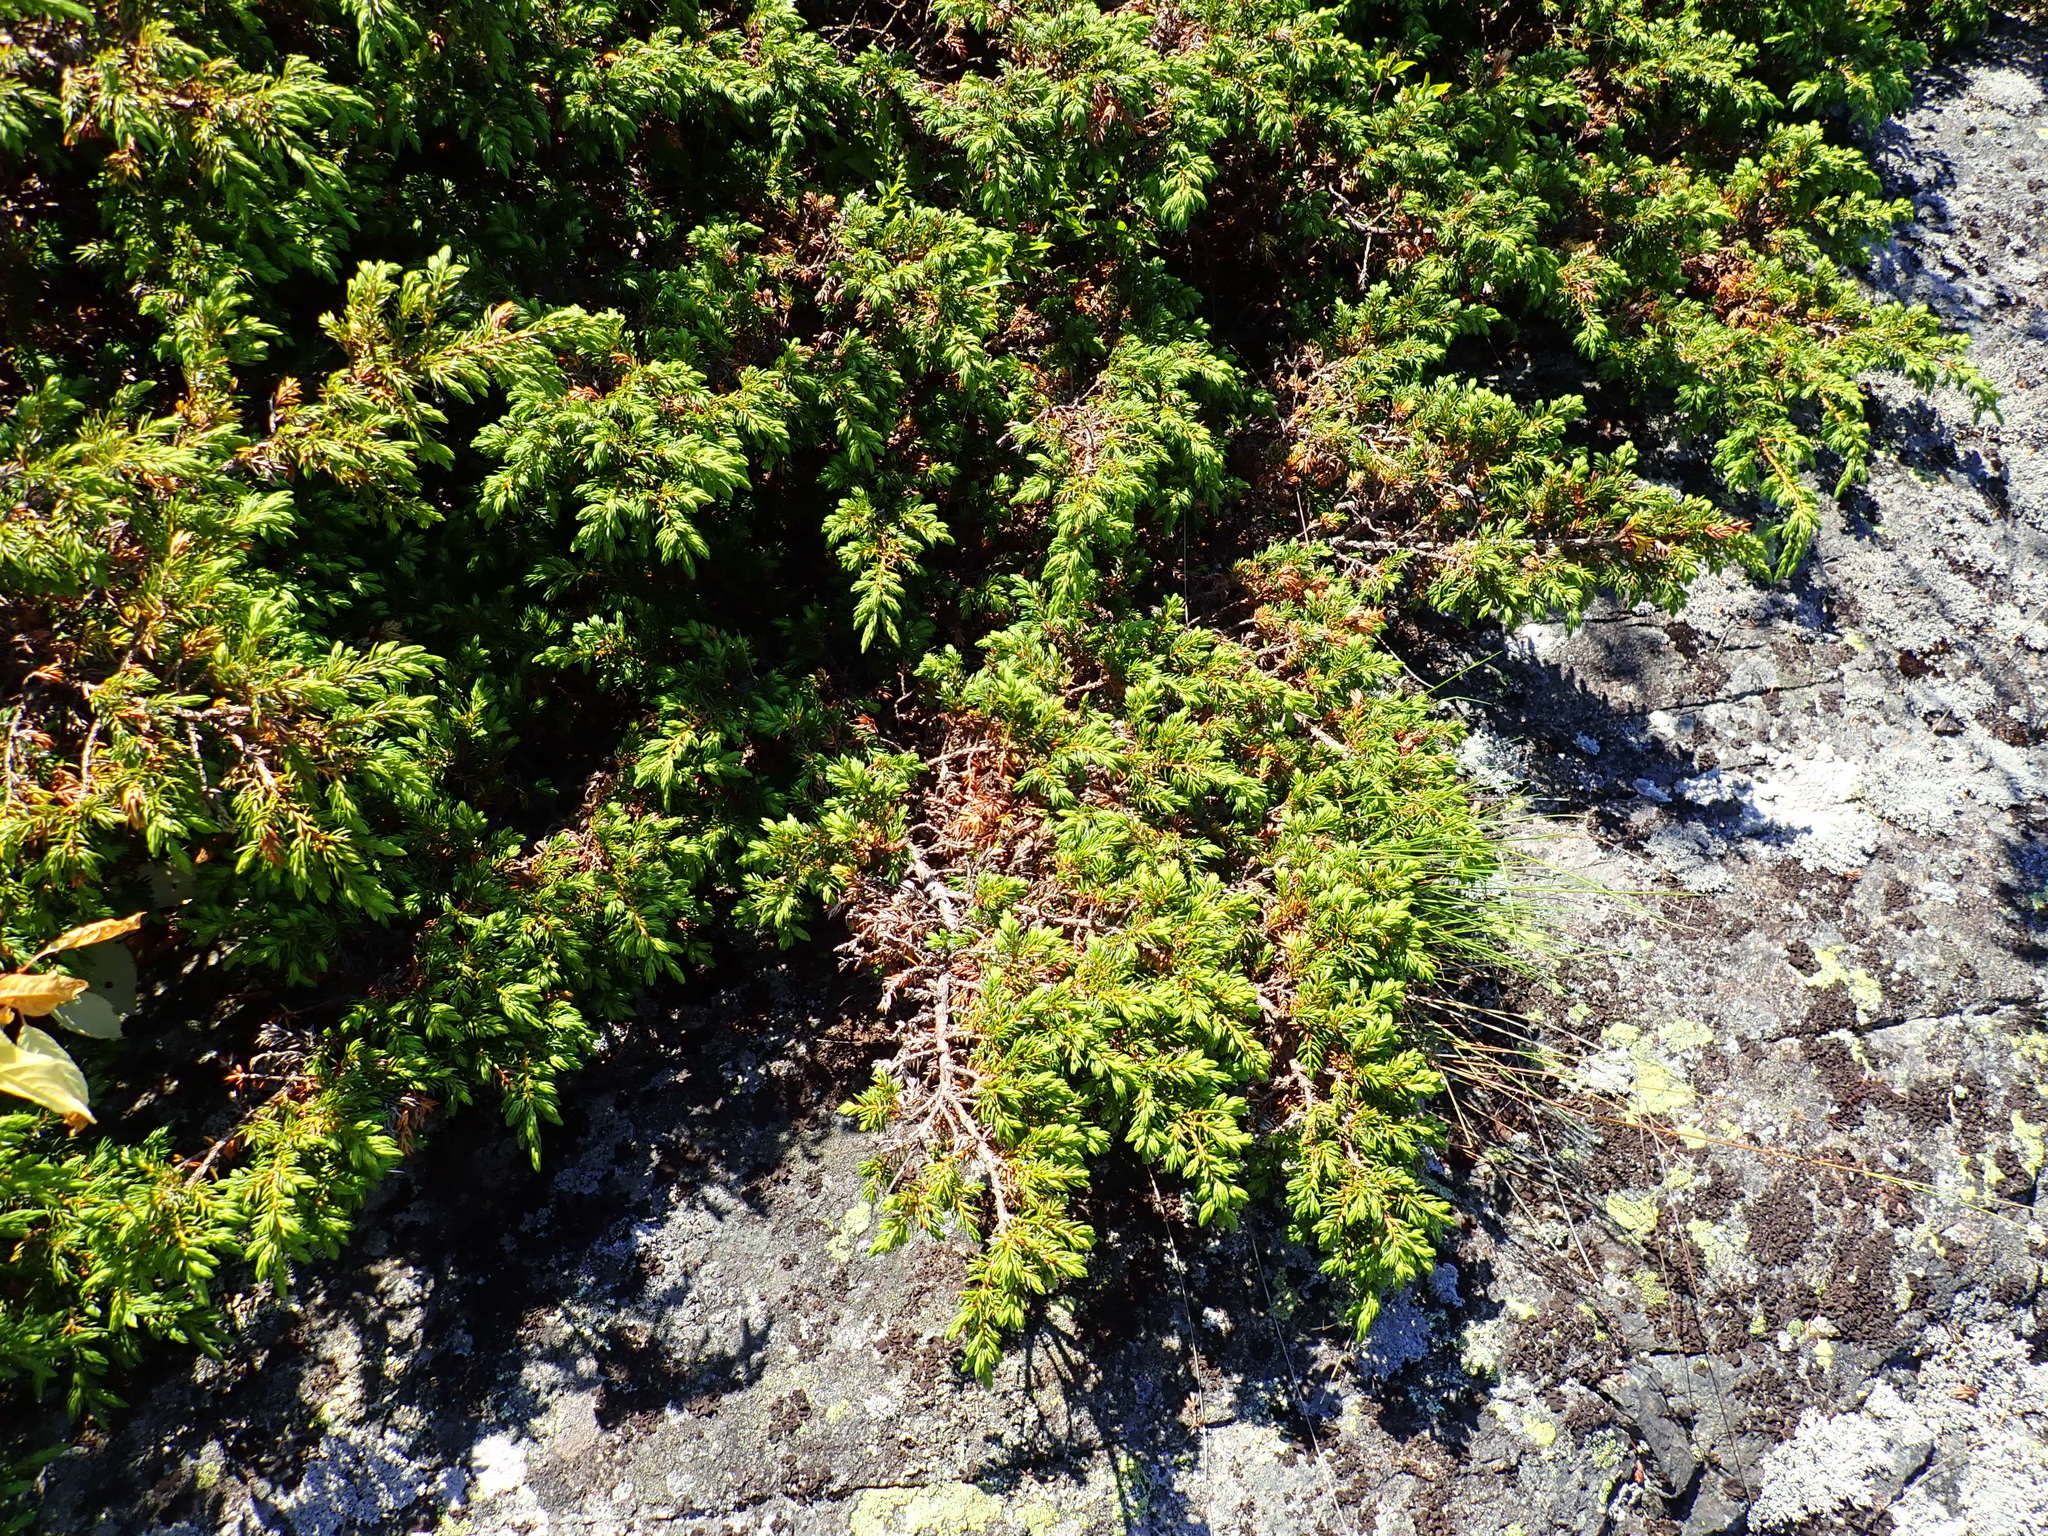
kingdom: Plantae
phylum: Tracheophyta
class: Pinopsida
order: Pinales
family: Cupressaceae
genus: Juniperus
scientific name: Juniperus communis
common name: Common juniper
